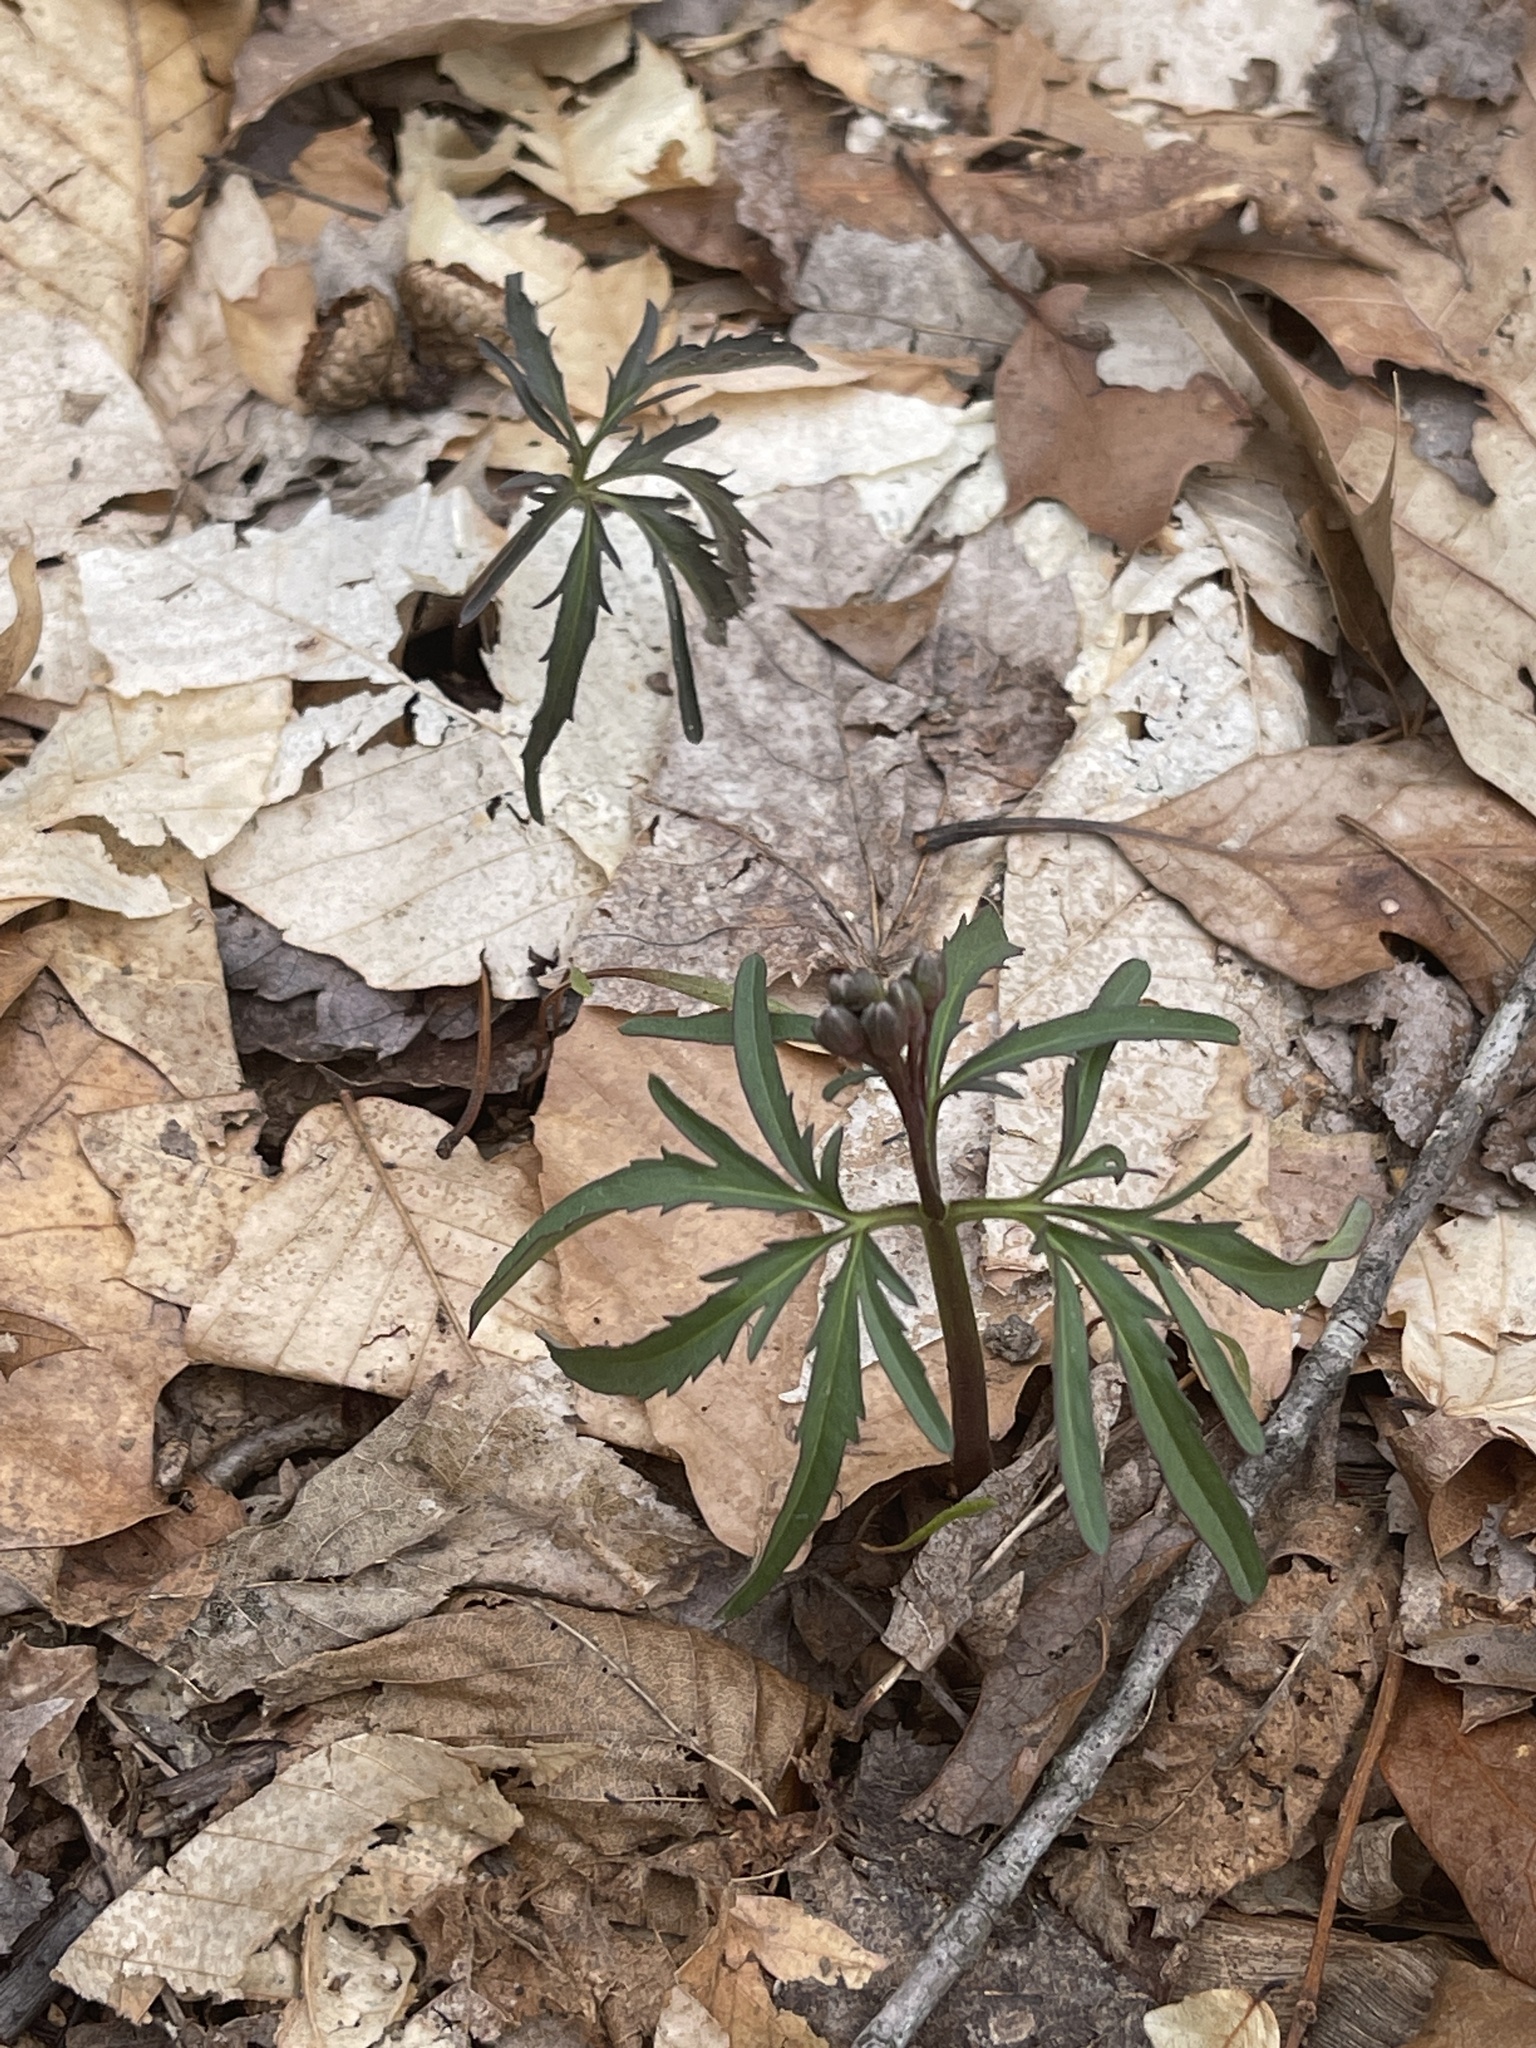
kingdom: Plantae
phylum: Tracheophyta
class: Magnoliopsida
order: Brassicales
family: Brassicaceae
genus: Cardamine
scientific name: Cardamine concatenata
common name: Cut-leaf toothcup
